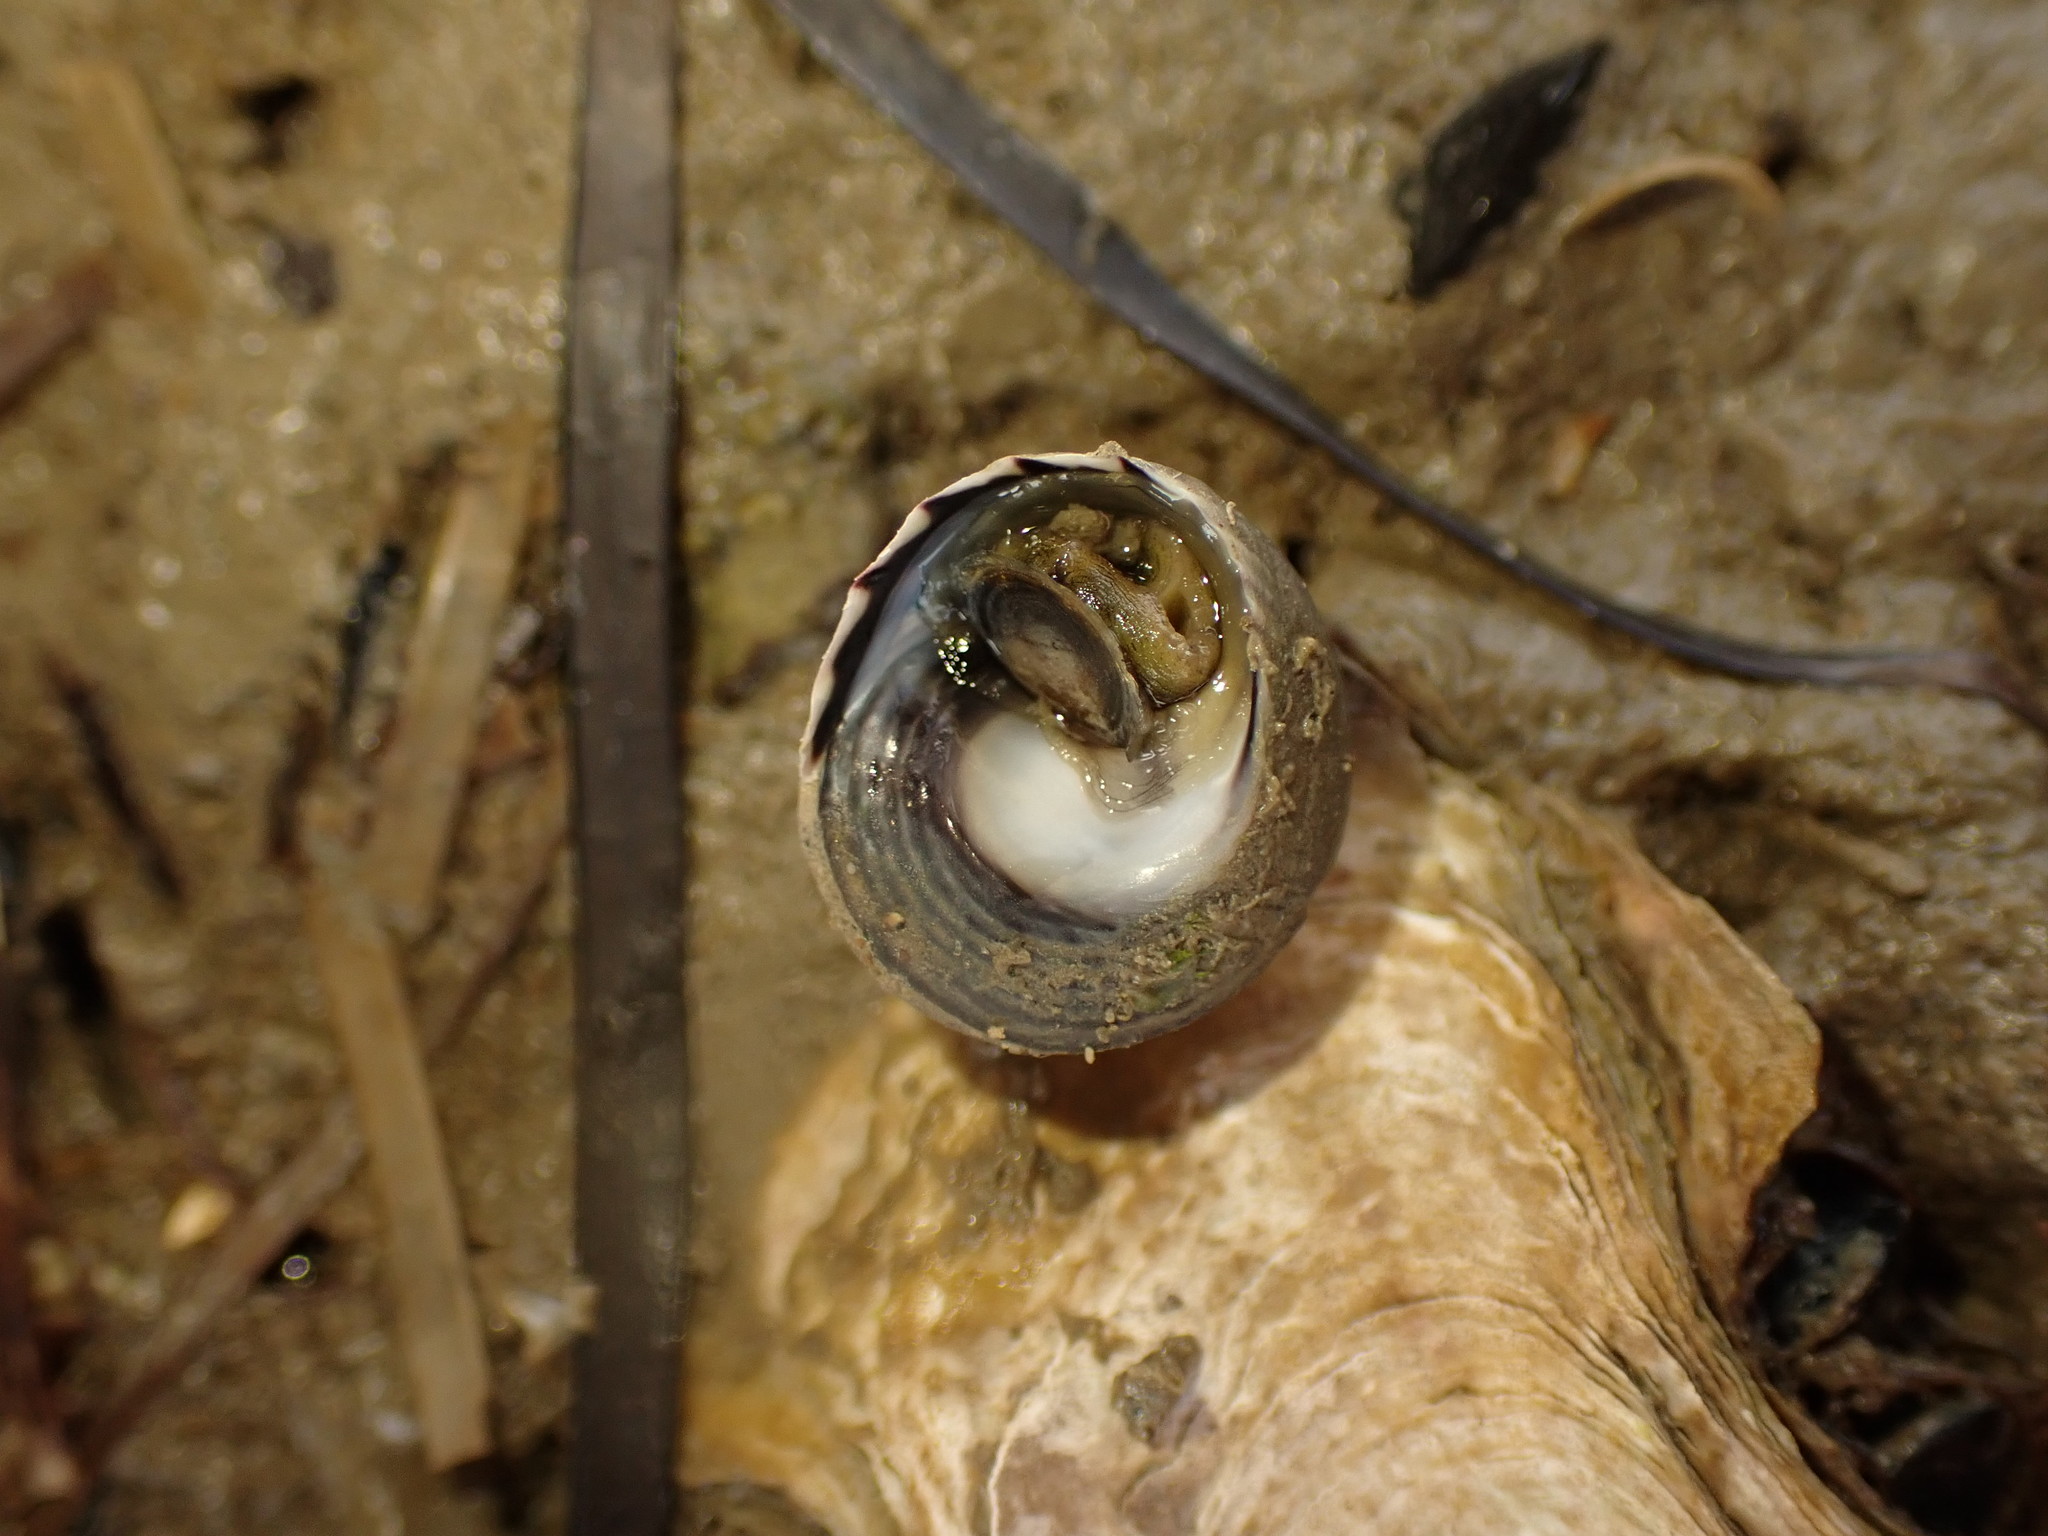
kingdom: Animalia
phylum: Mollusca
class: Gastropoda
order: Trochida
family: Trochidae
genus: Diloma
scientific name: Diloma subrostratum
